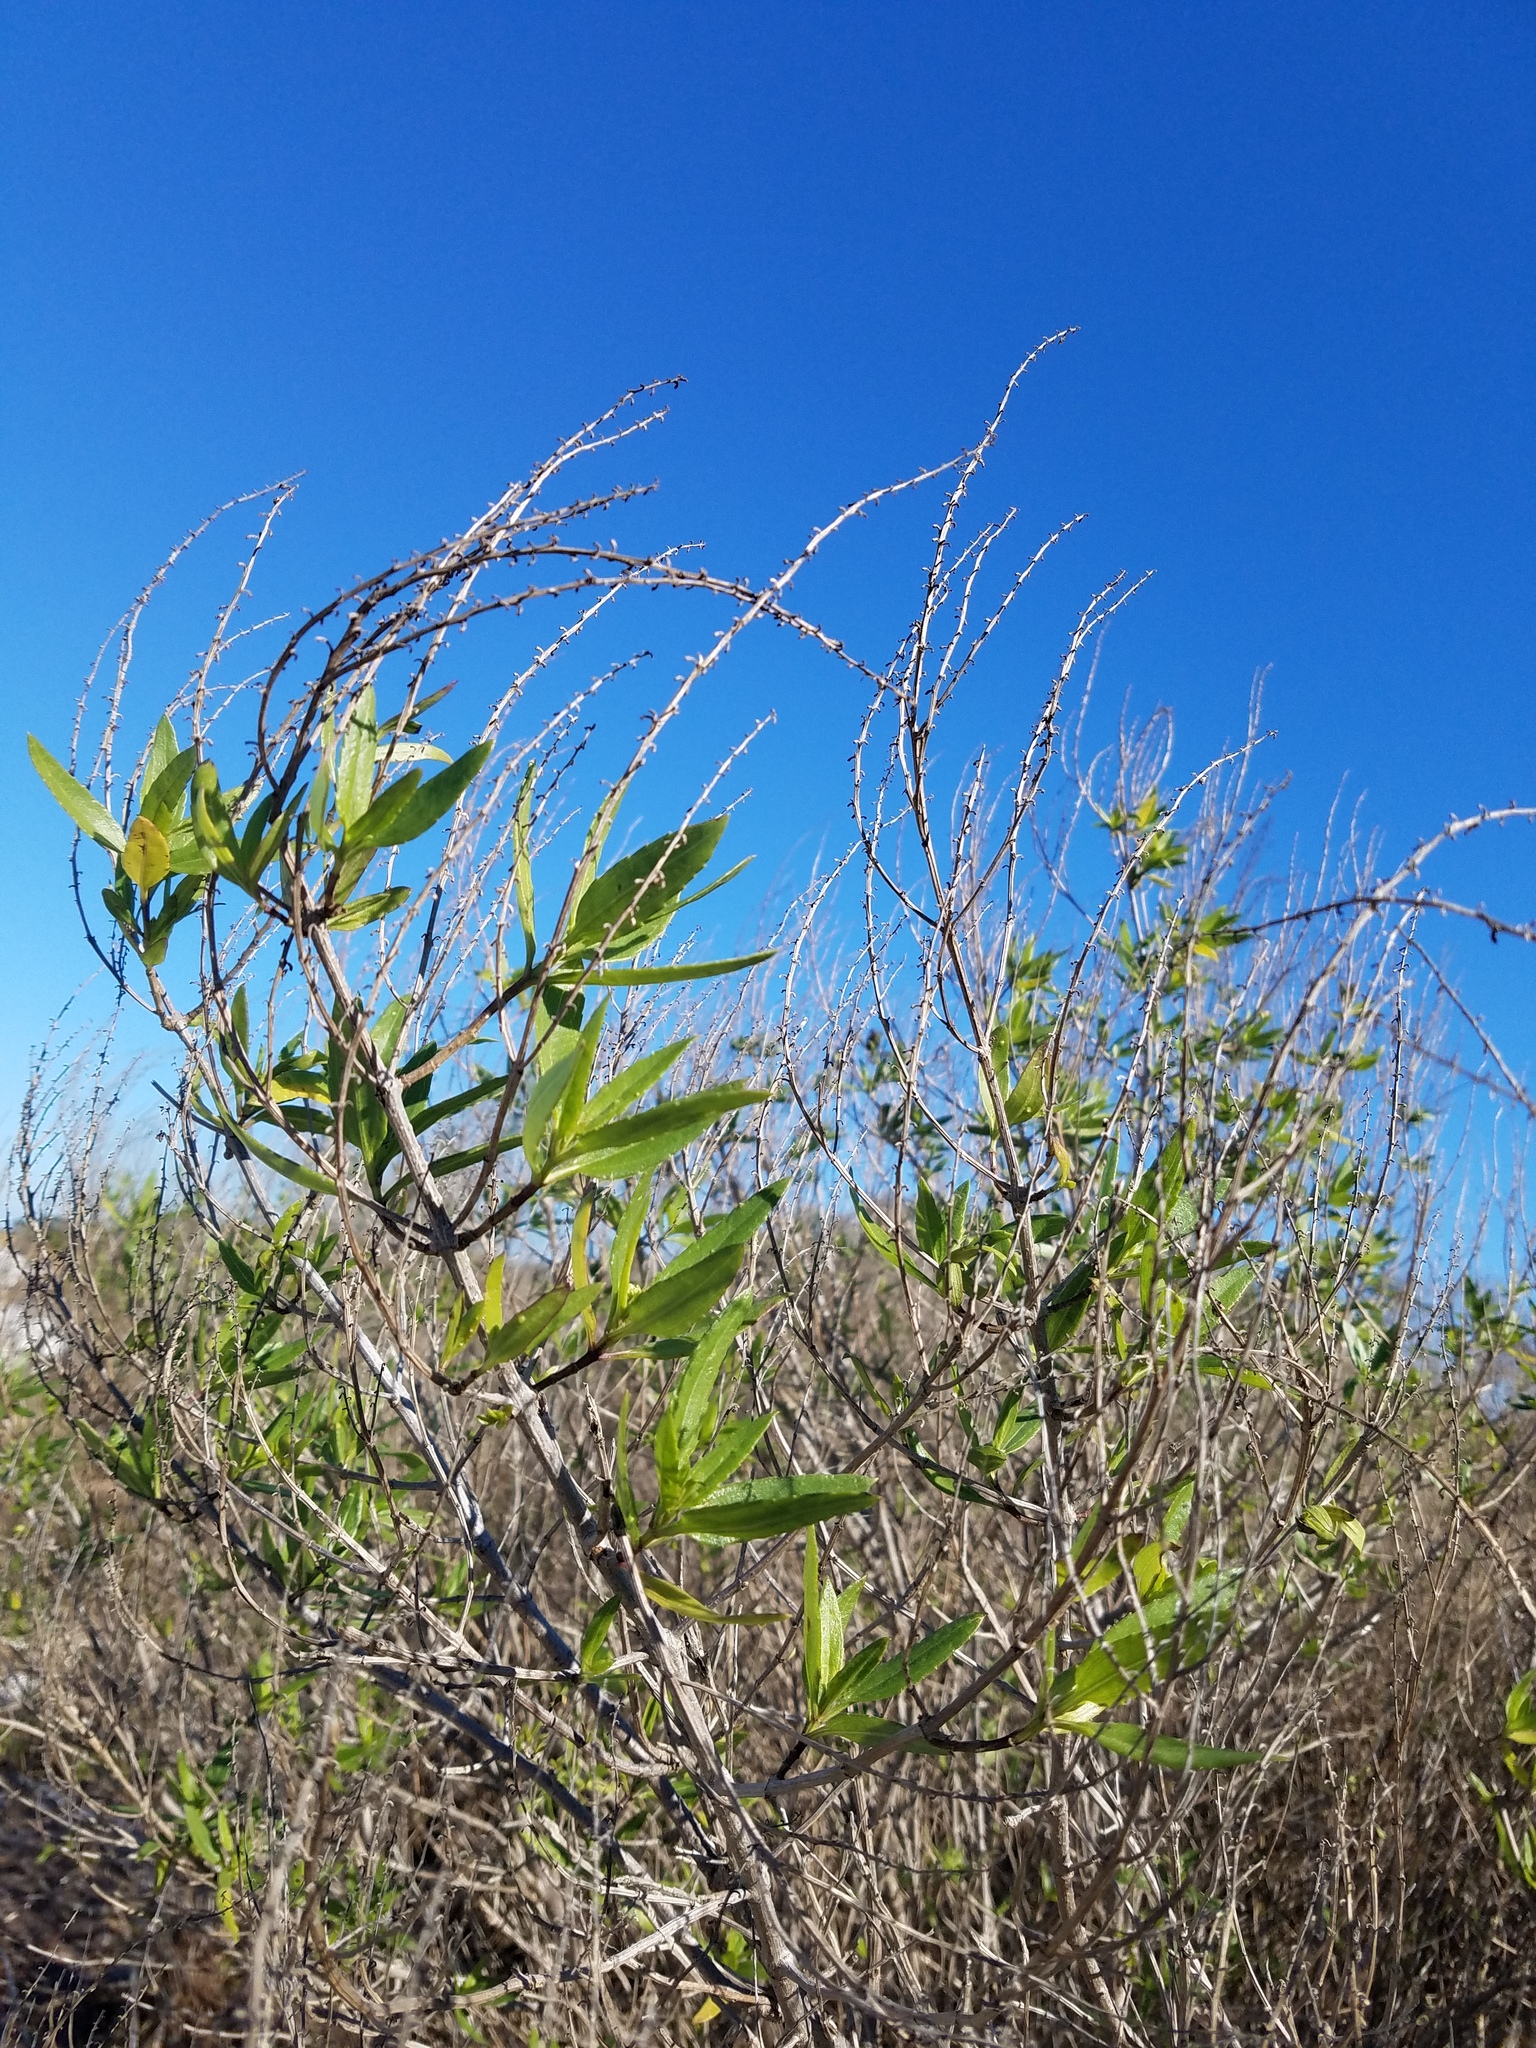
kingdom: Plantae
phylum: Tracheophyta
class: Magnoliopsida
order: Asterales
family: Asteraceae
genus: Iva
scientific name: Iva frutescens
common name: Big-leaved marsh-elder
